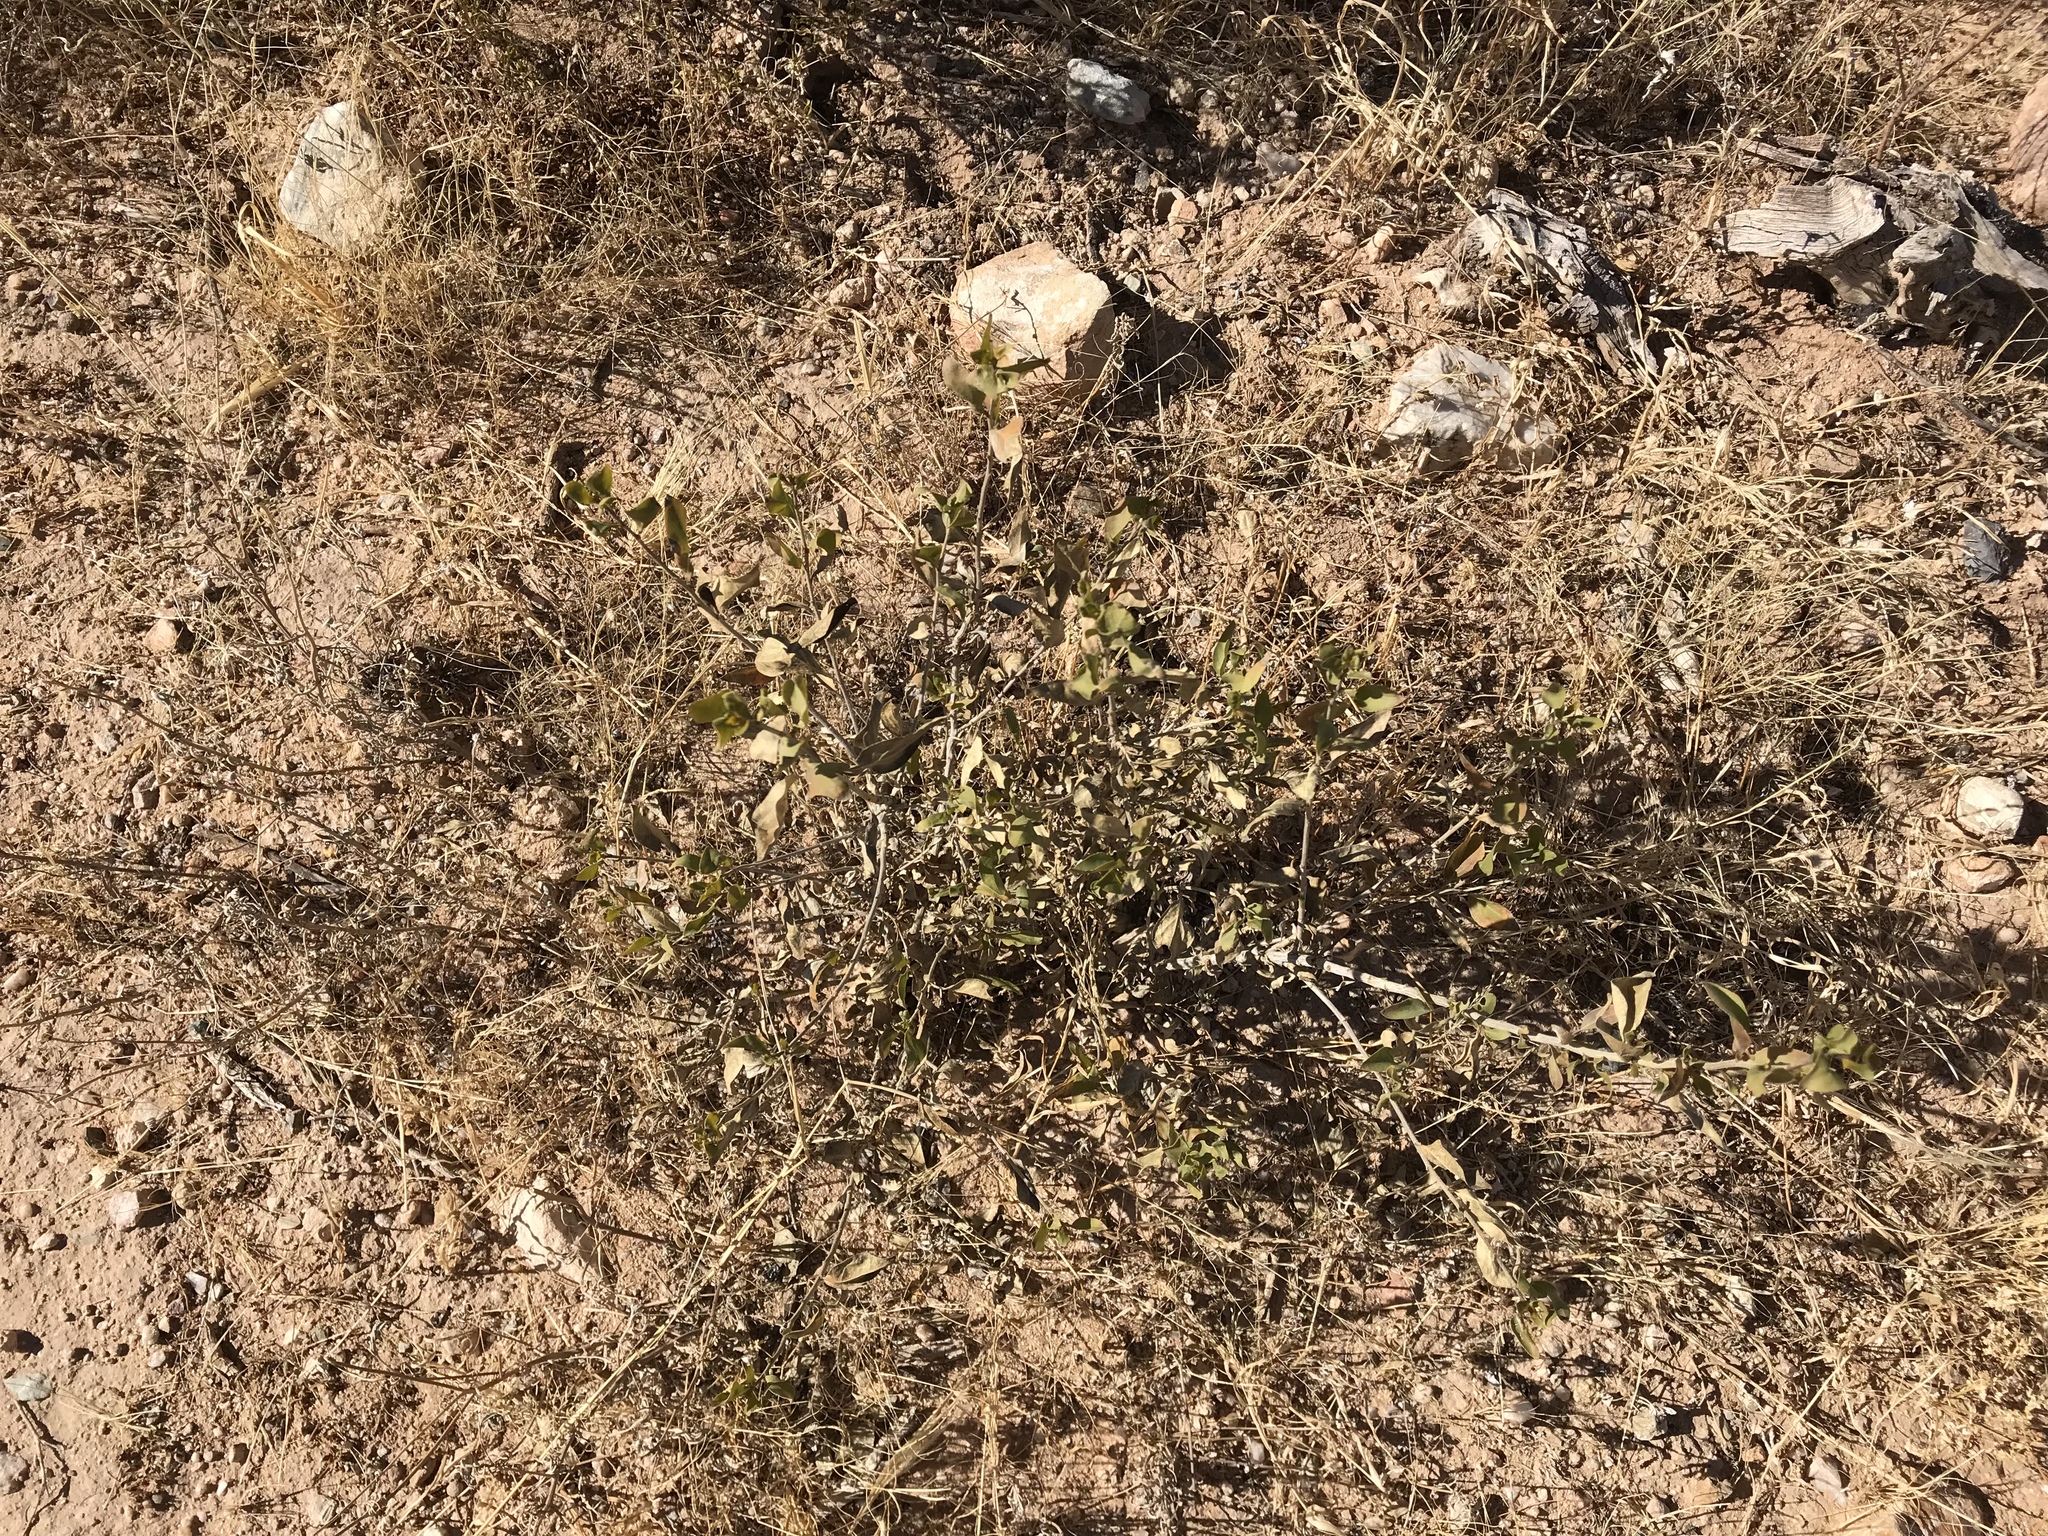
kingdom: Plantae
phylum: Tracheophyta
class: Magnoliopsida
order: Asterales
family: Asteraceae
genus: Flourensia
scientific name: Flourensia cernua
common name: Varnishbush
